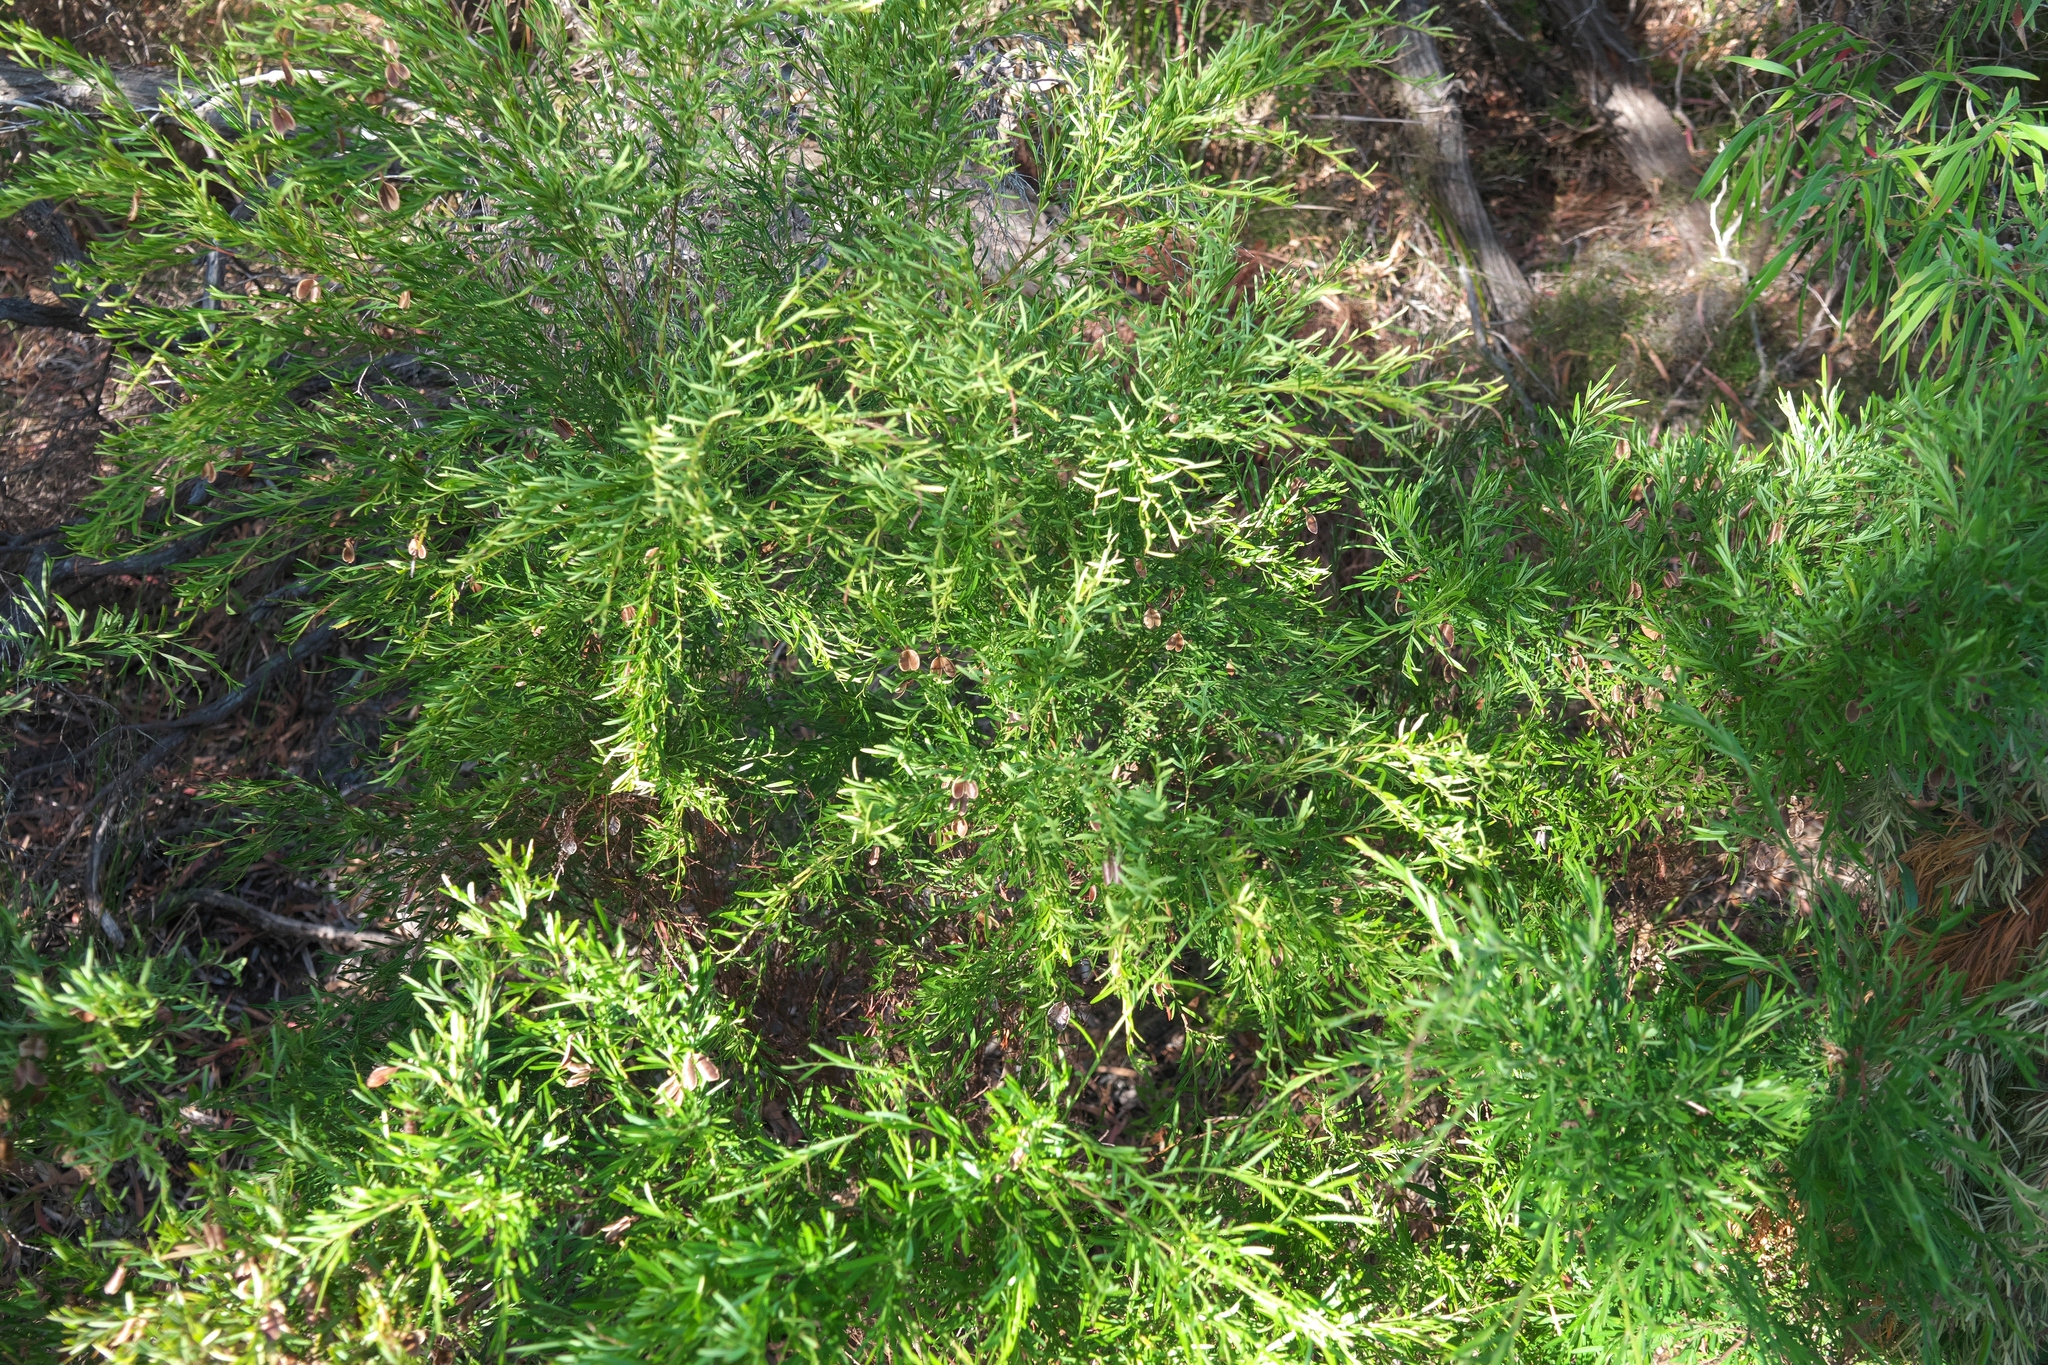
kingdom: Plantae
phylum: Tracheophyta
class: Magnoliopsida
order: Fabales
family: Fabaceae
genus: Bossiaea
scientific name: Bossiaea linophylla
